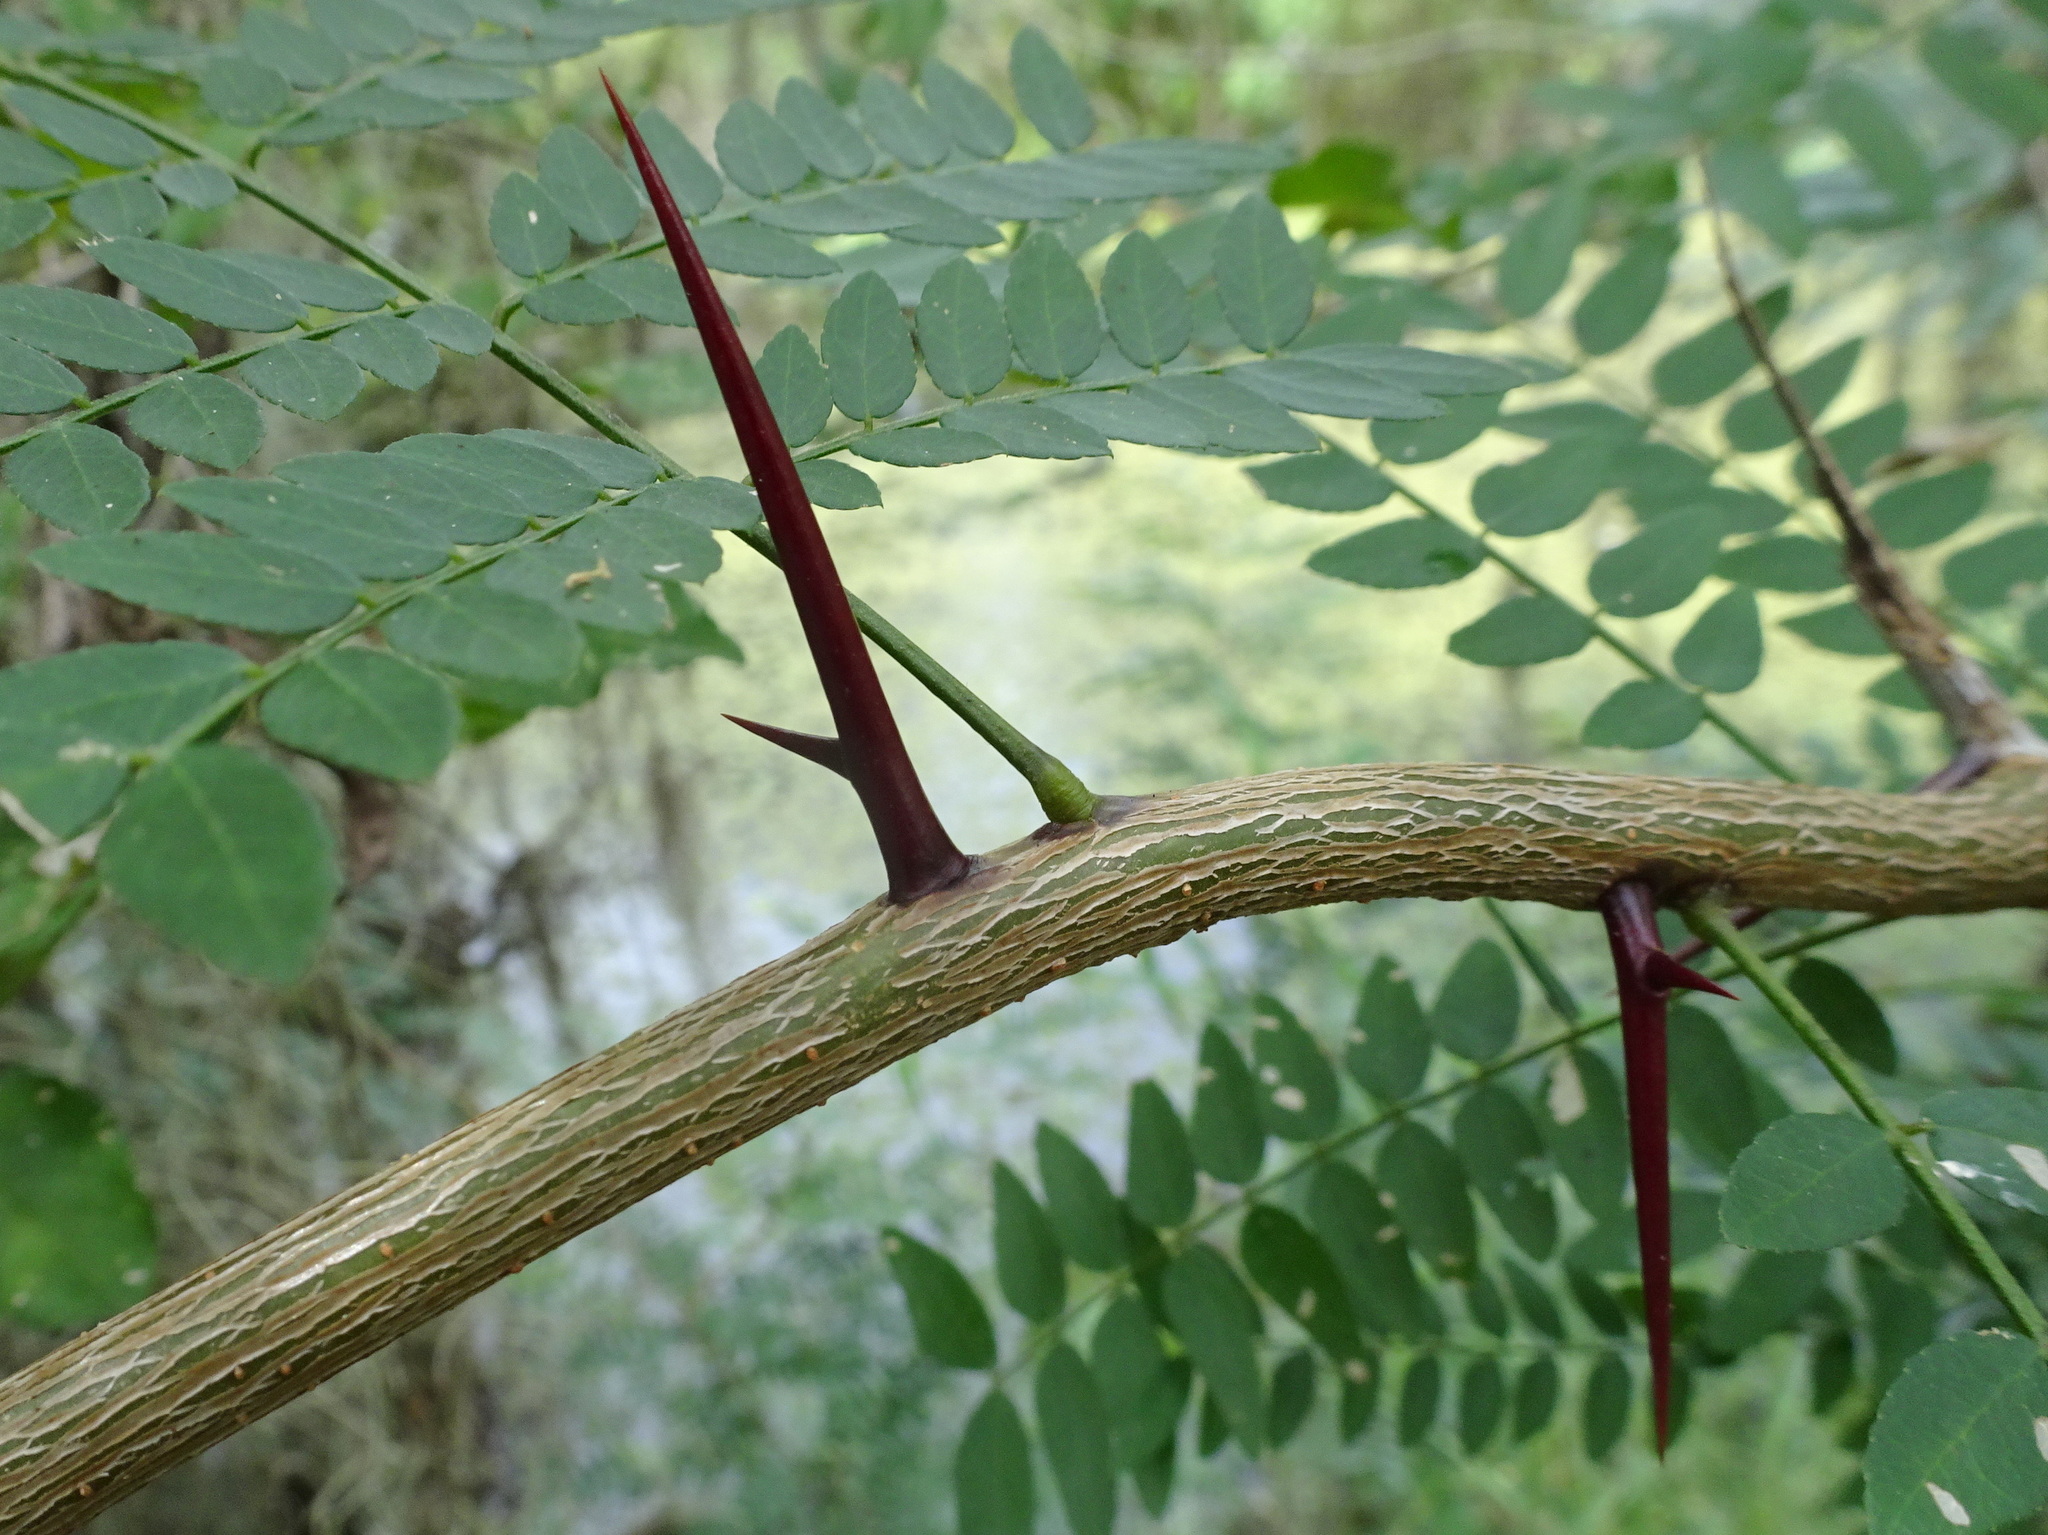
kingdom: Plantae
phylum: Tracheophyta
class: Magnoliopsida
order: Fabales
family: Fabaceae
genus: Gleditsia
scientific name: Gleditsia triacanthos
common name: Common honeylocust
